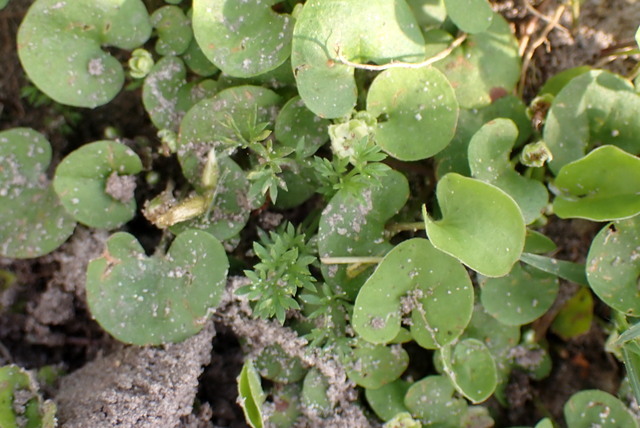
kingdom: Plantae
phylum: Tracheophyta
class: Magnoliopsida
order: Solanales
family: Convolvulaceae
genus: Dichondra
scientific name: Dichondra carolinensis
